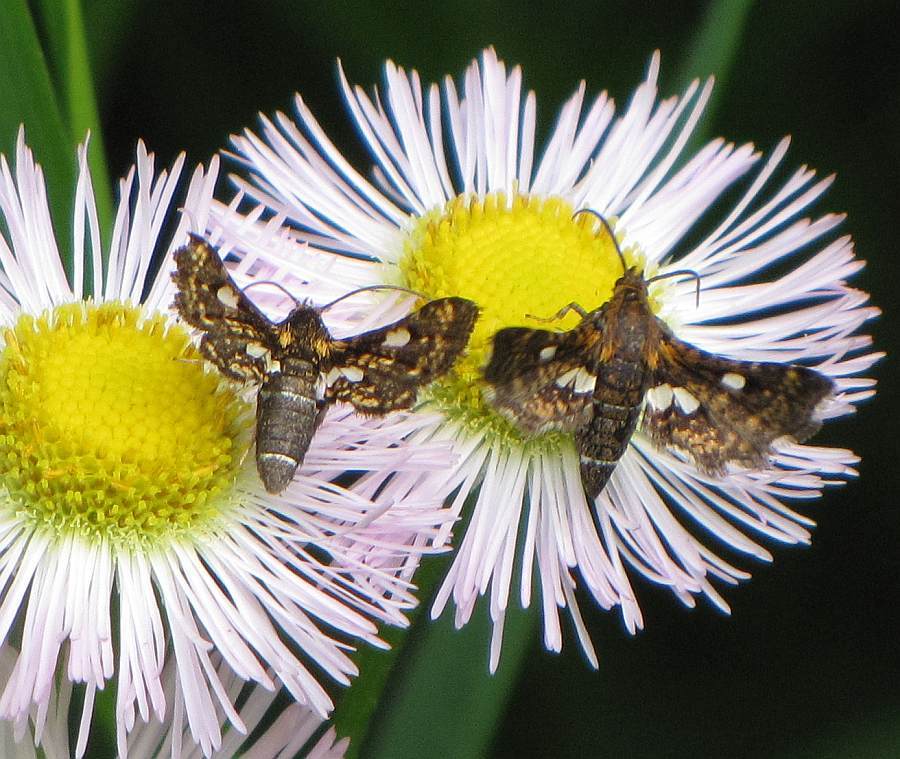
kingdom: Animalia
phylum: Arthropoda
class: Insecta
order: Lepidoptera
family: Thyrididae
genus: Thyris
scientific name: Thyris maculata
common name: Spotted thyris moth
